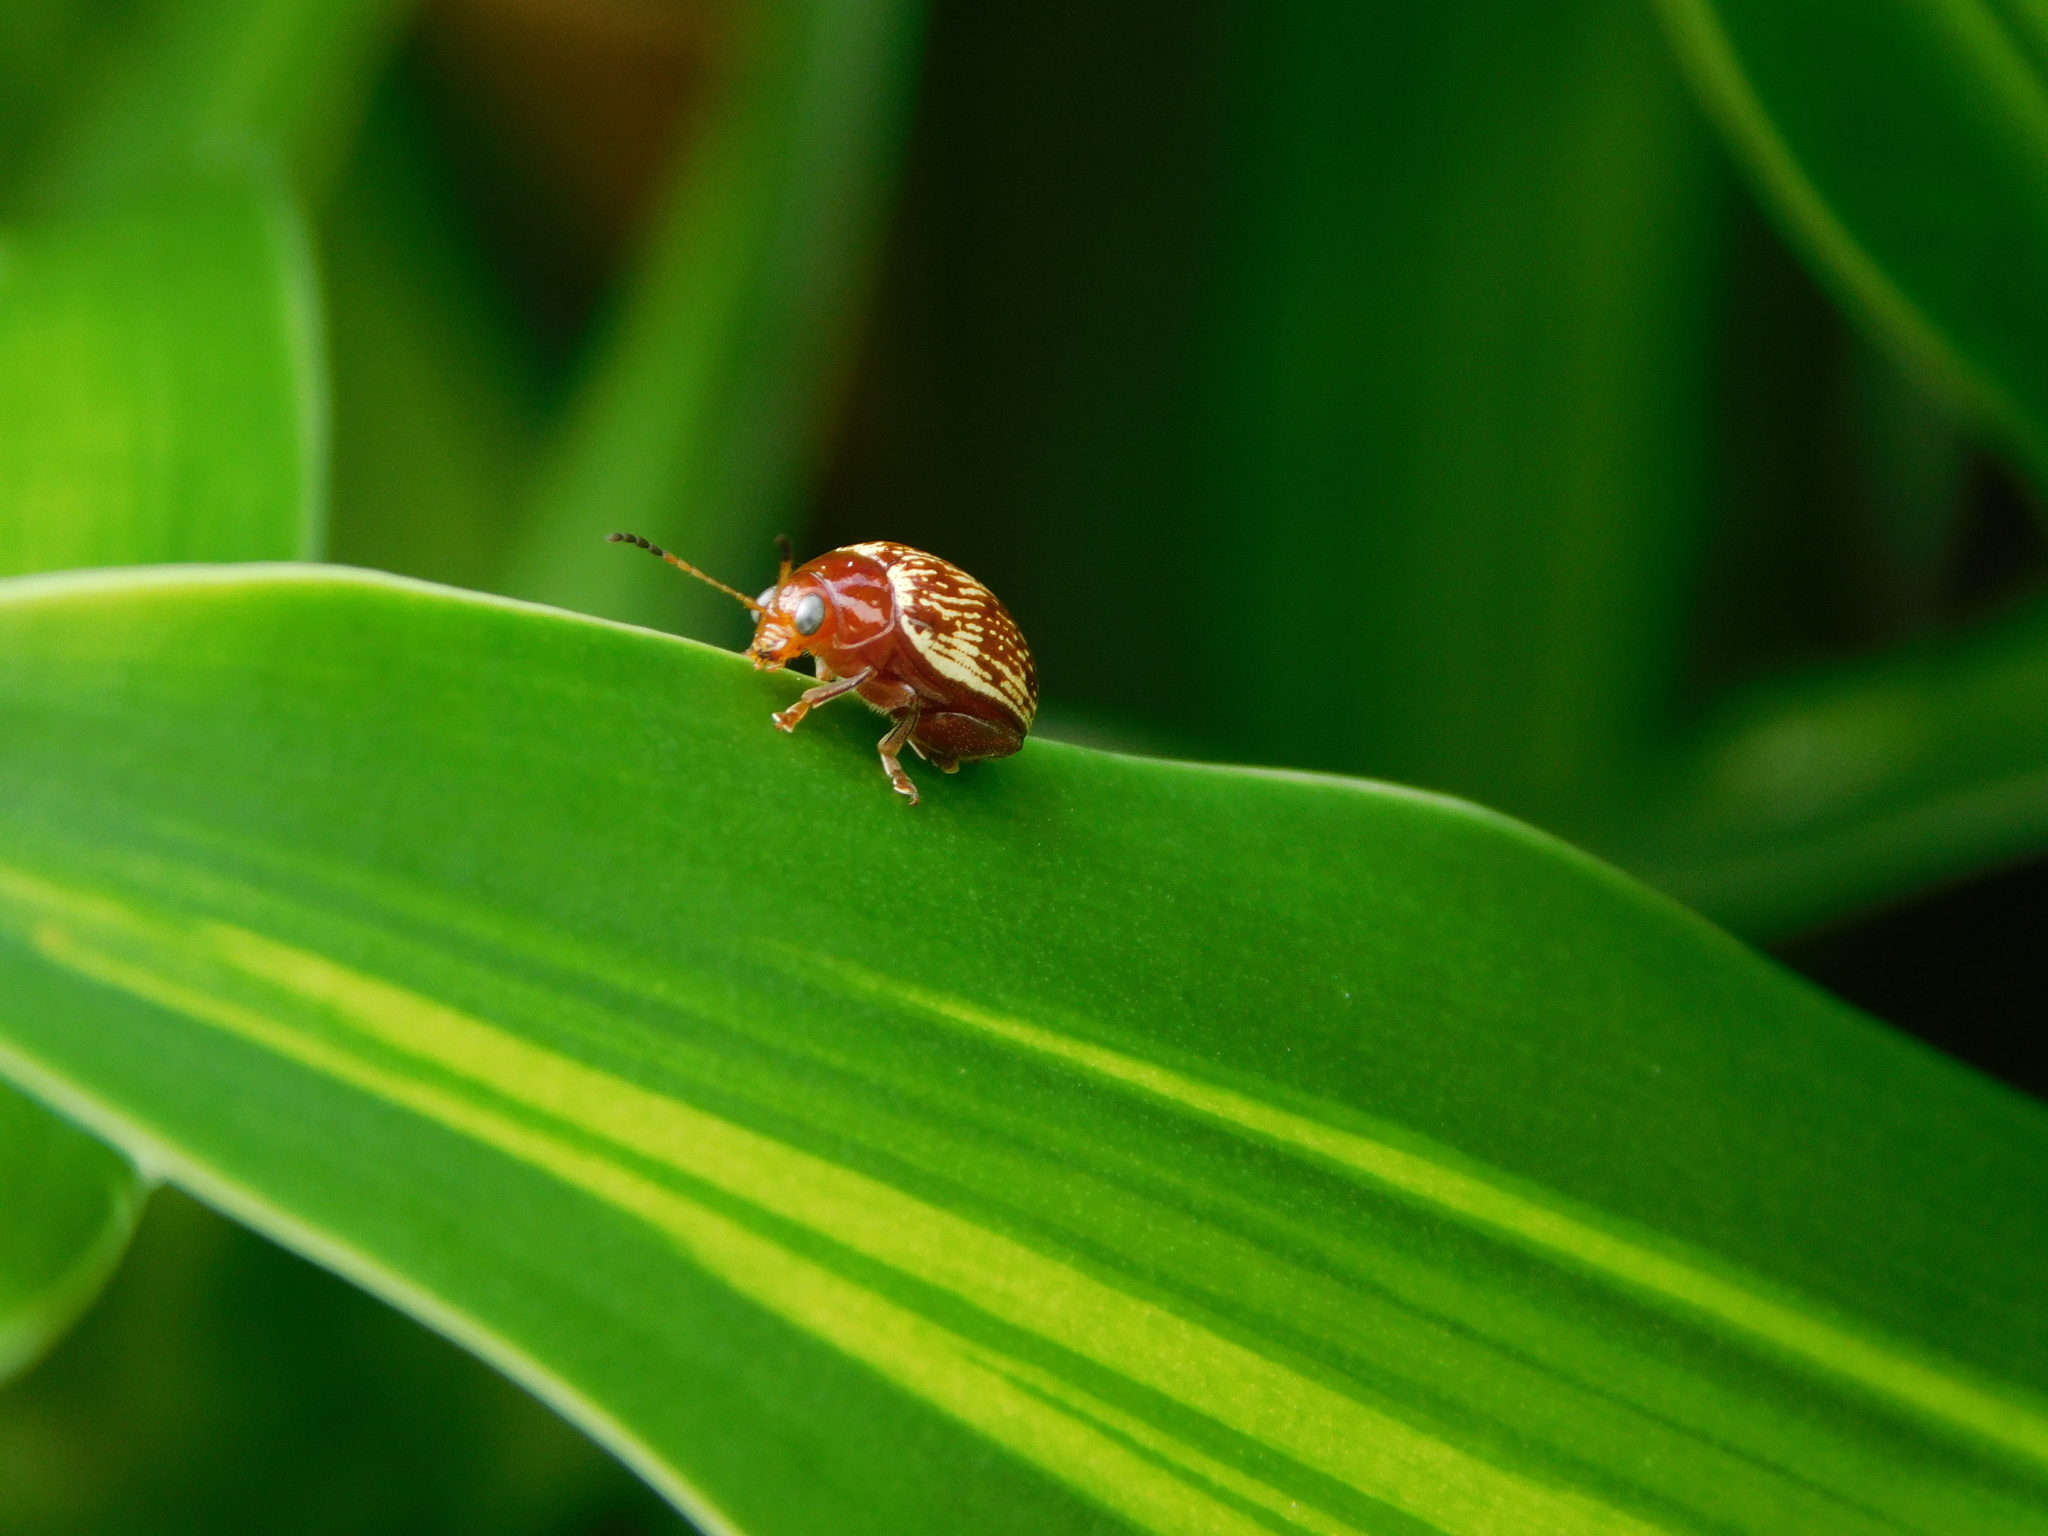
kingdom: Animalia
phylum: Arthropoda
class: Insecta
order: Coleoptera
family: Chrysomelidae
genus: Notozona
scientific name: Notozona
